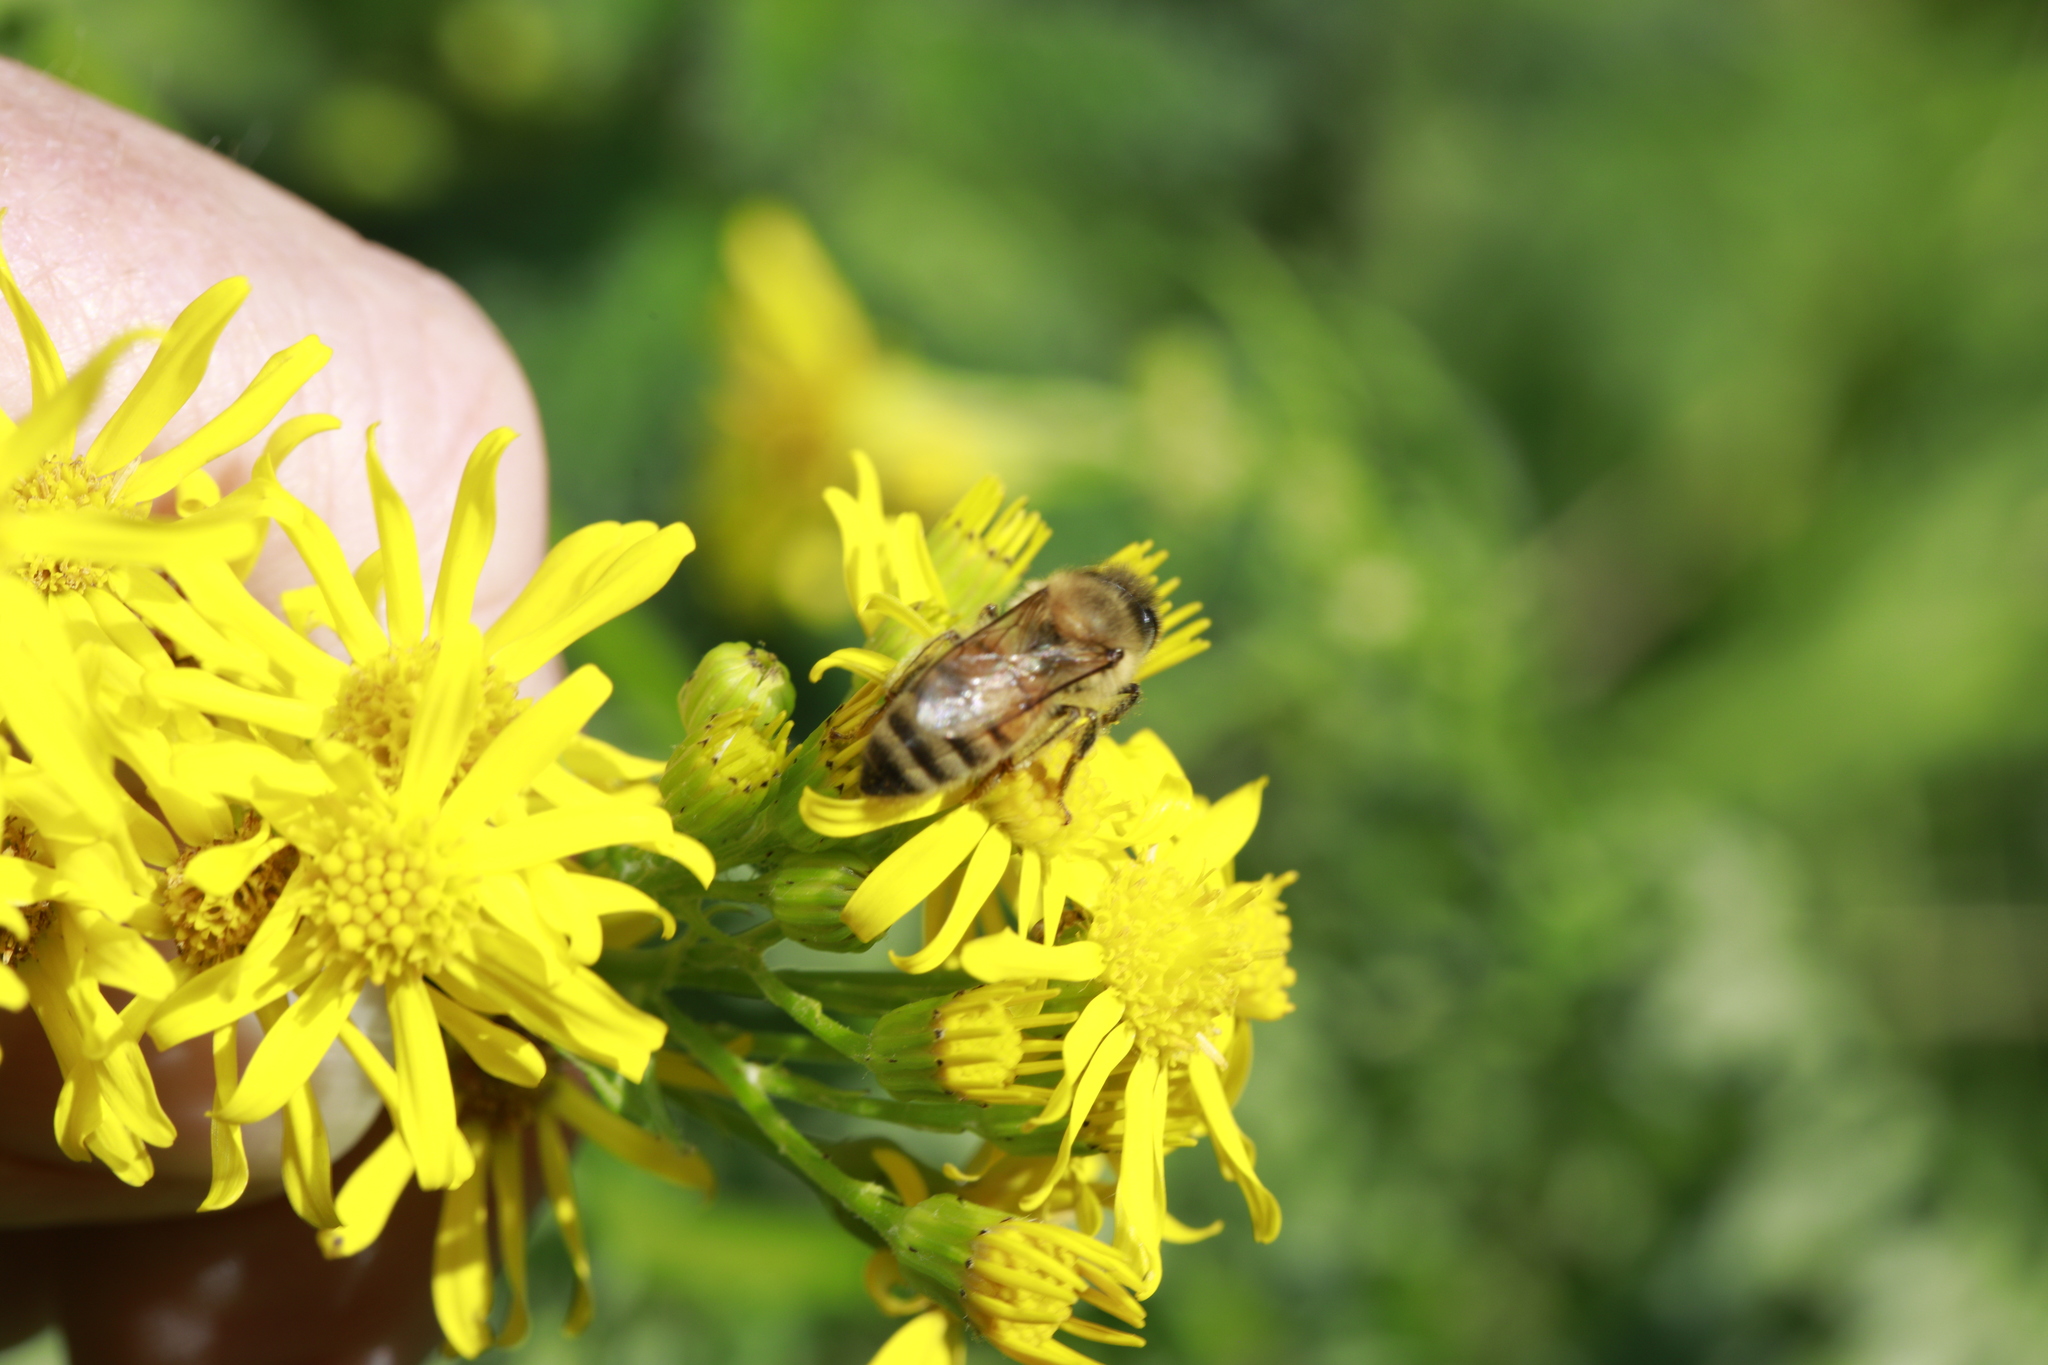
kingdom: Animalia
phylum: Arthropoda
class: Insecta
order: Hymenoptera
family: Apidae
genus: Apis
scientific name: Apis mellifera
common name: Honey bee
